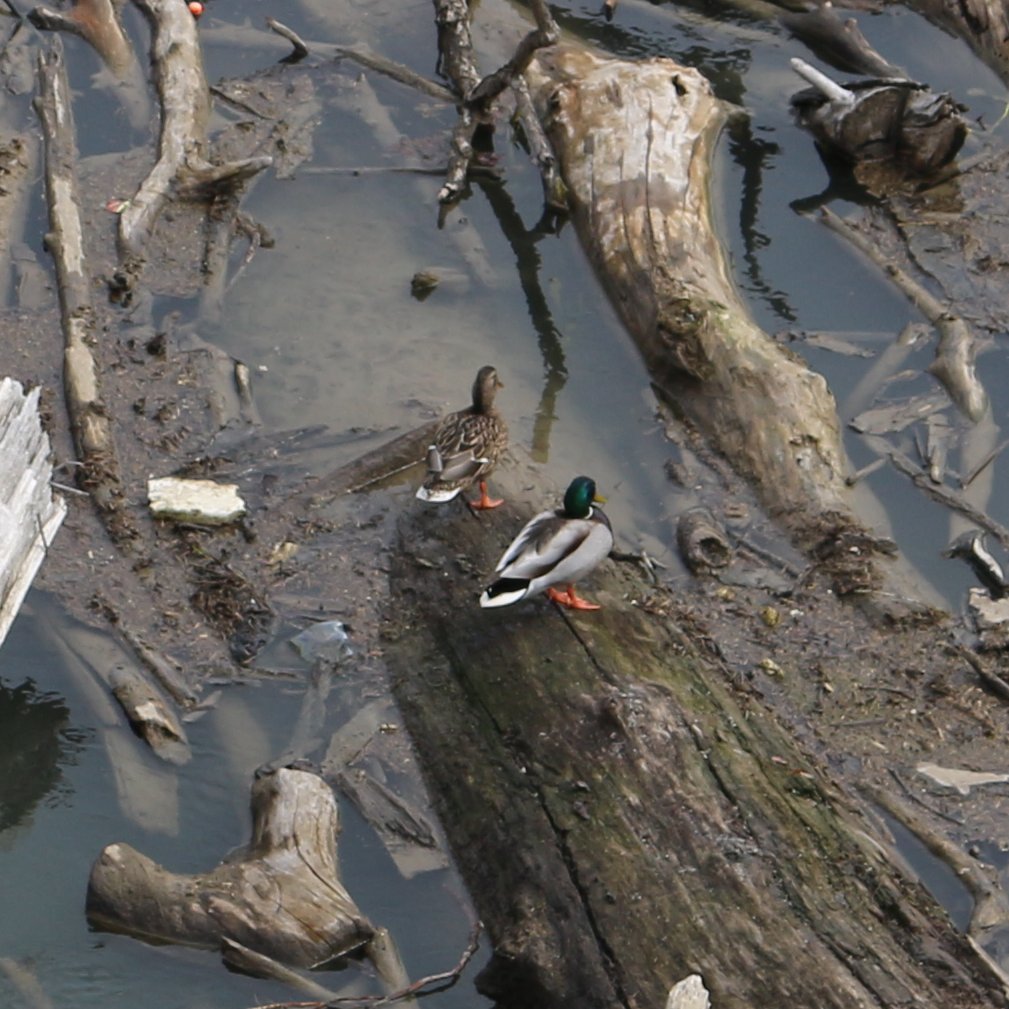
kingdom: Animalia
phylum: Chordata
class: Aves
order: Anseriformes
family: Anatidae
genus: Anas
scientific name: Anas platyrhynchos
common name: Mallard
